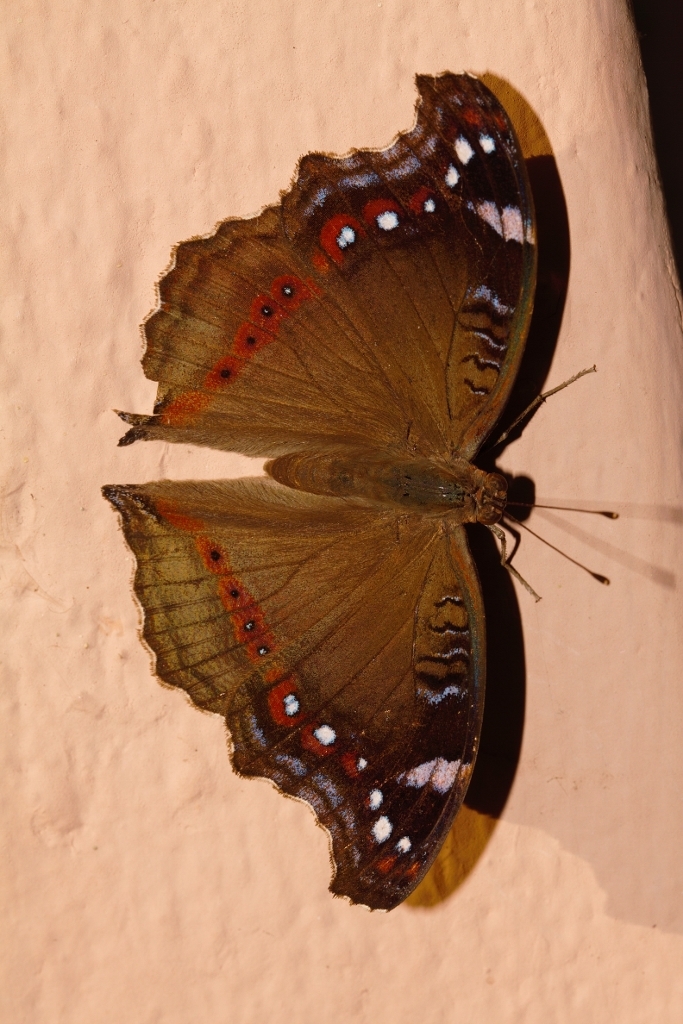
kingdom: Animalia
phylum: Arthropoda
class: Insecta
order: Lepidoptera
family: Nymphalidae
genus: Junonia
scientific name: Junonia archesia
